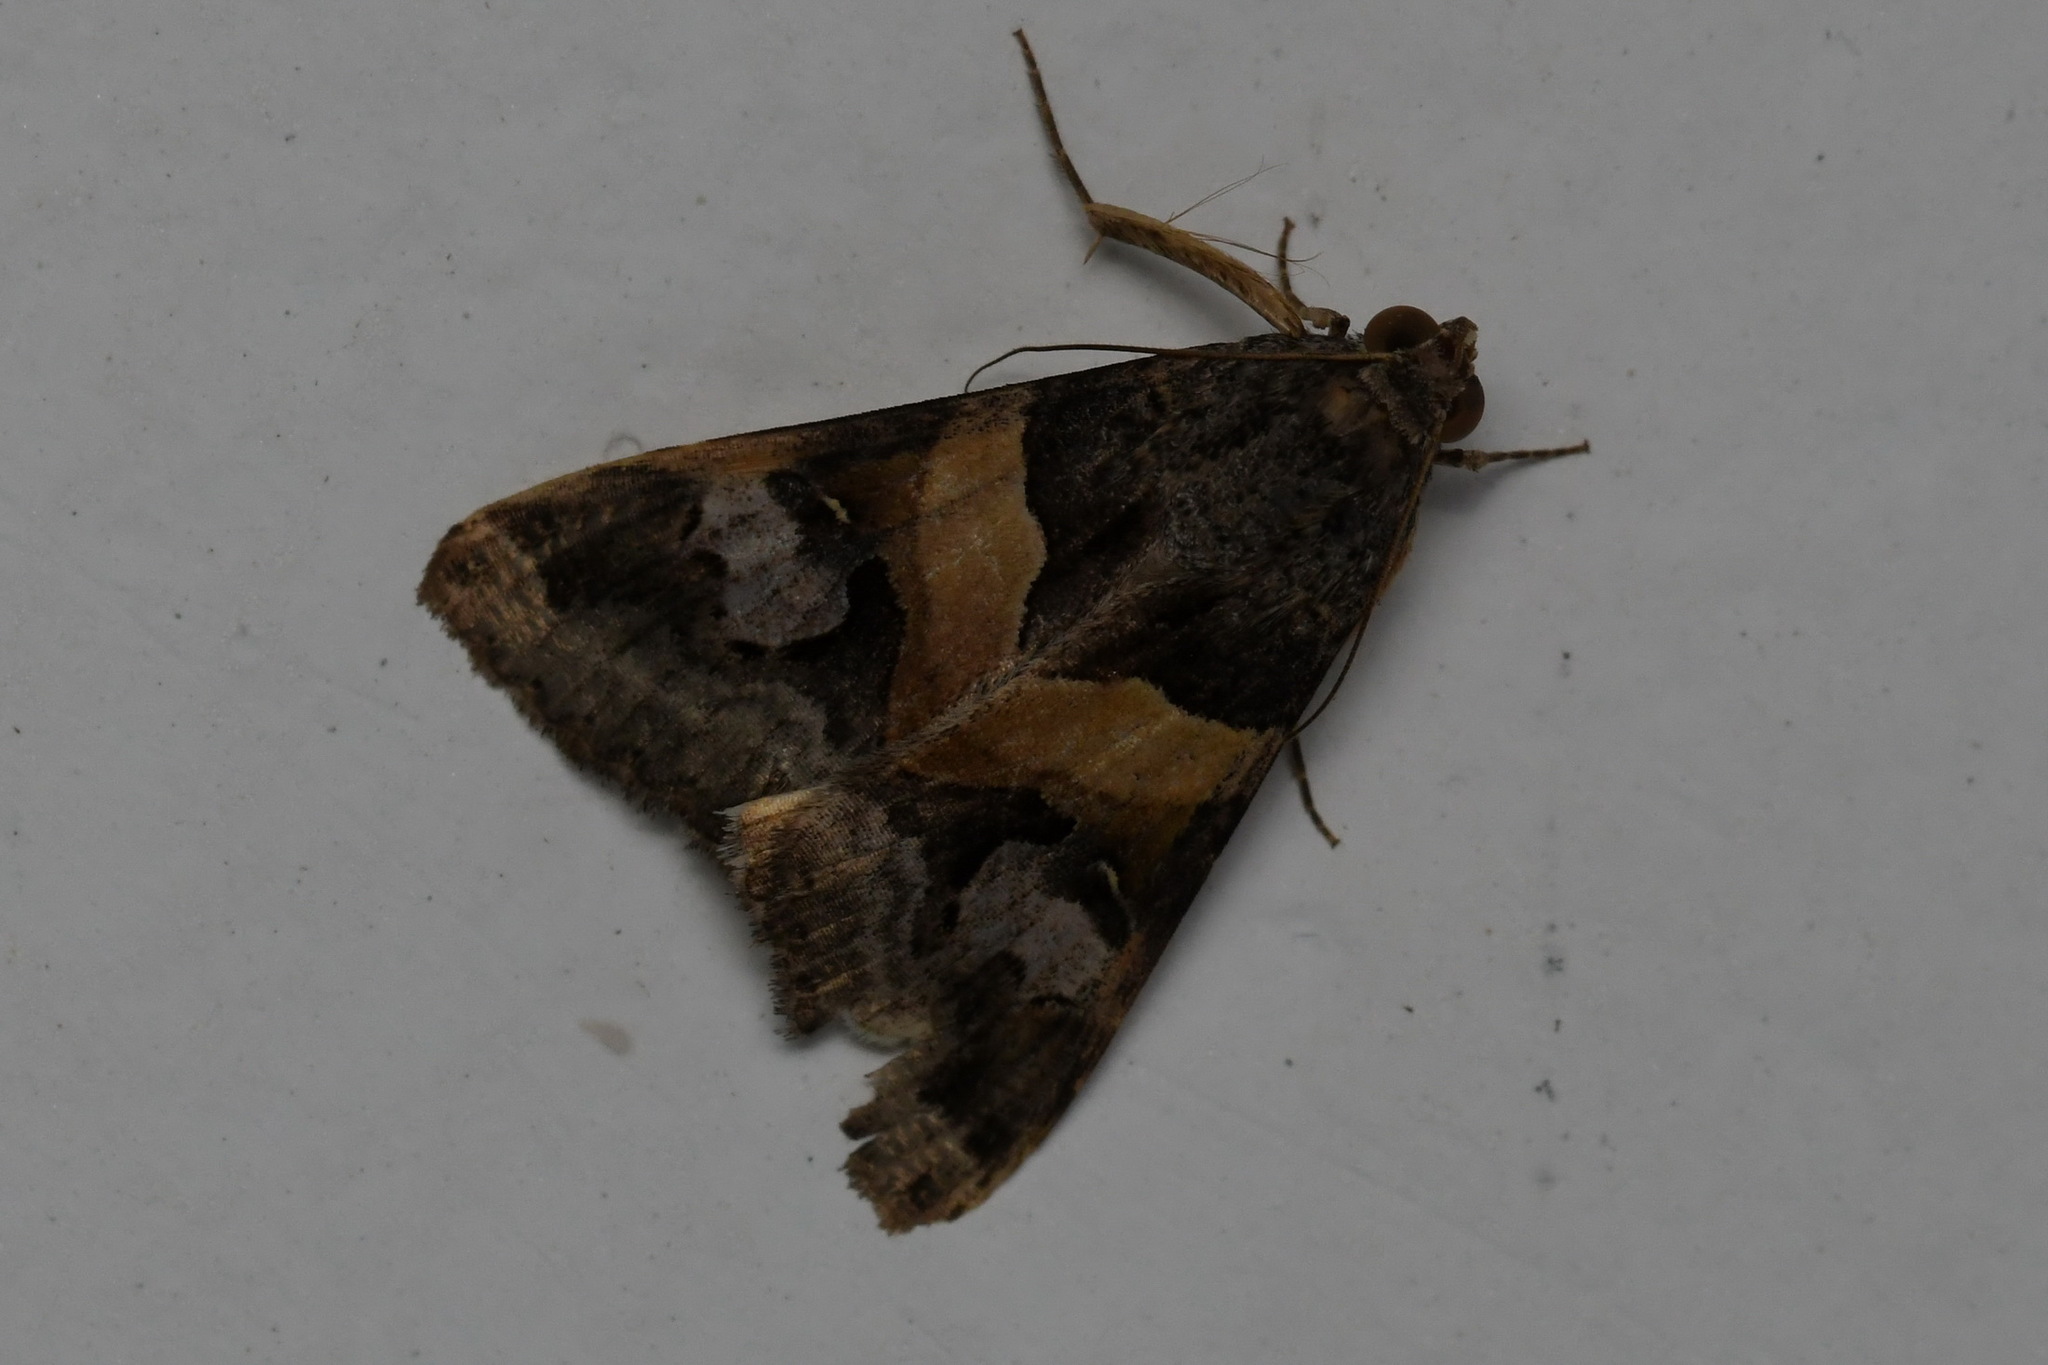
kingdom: Animalia
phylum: Arthropoda
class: Insecta
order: Lepidoptera
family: Erebidae
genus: Melipotis
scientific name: Melipotis ochrodes
